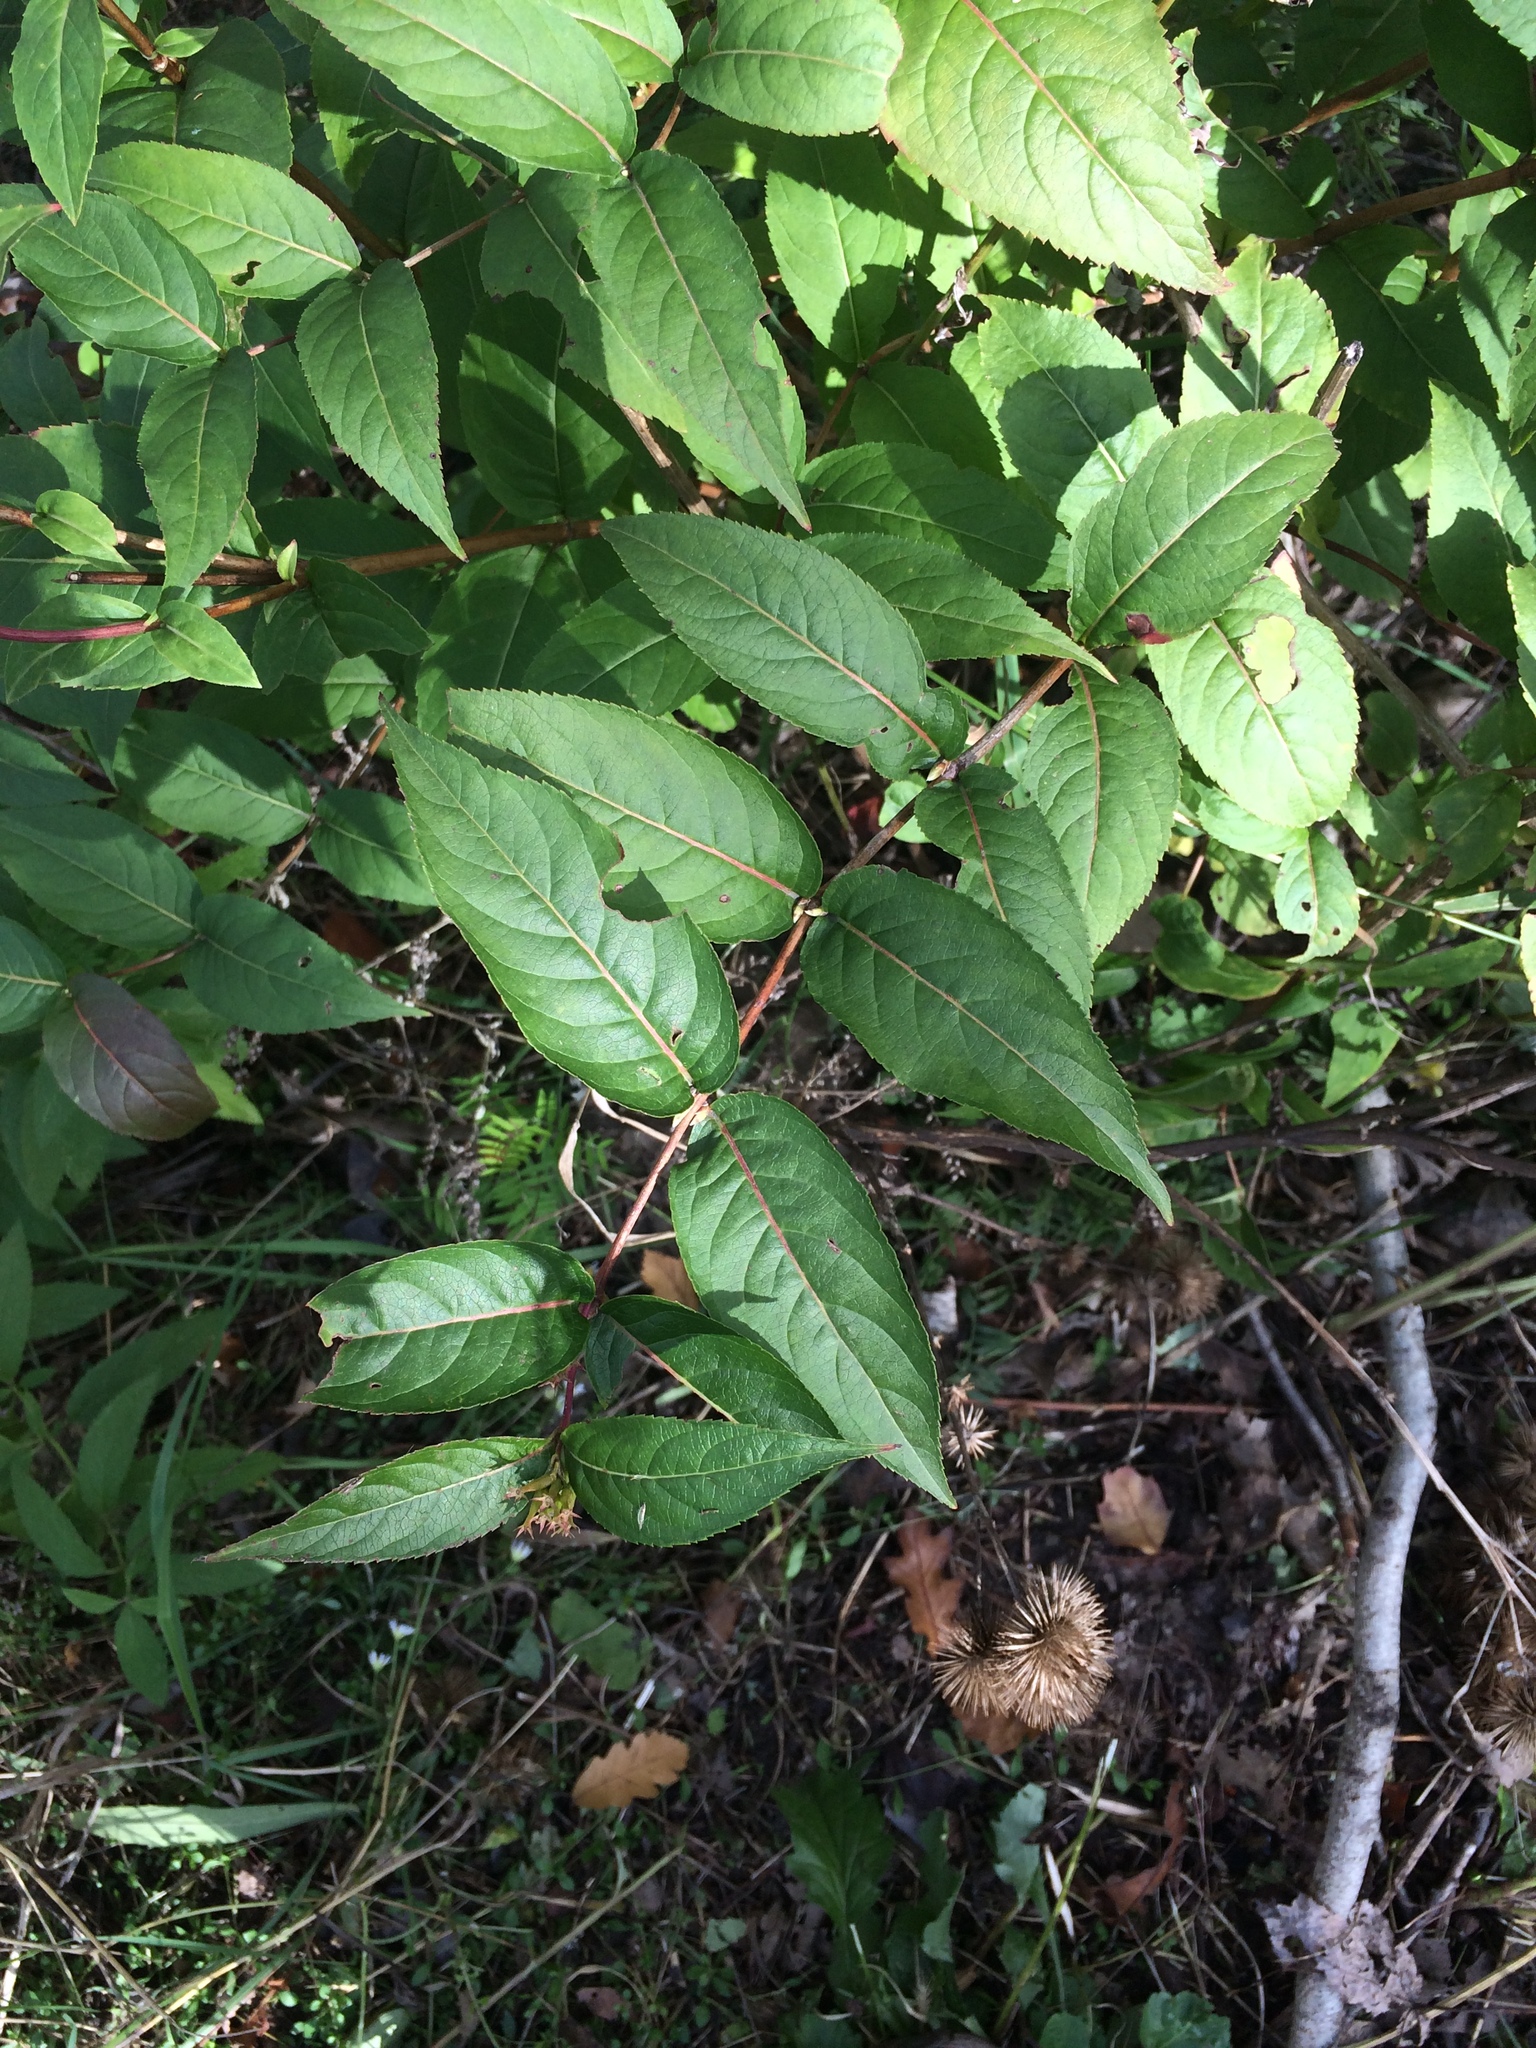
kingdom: Plantae
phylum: Tracheophyta
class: Magnoliopsida
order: Dipsacales
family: Caprifoliaceae
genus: Diervilla
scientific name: Diervilla lonicera
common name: Bush-honeysuckle
